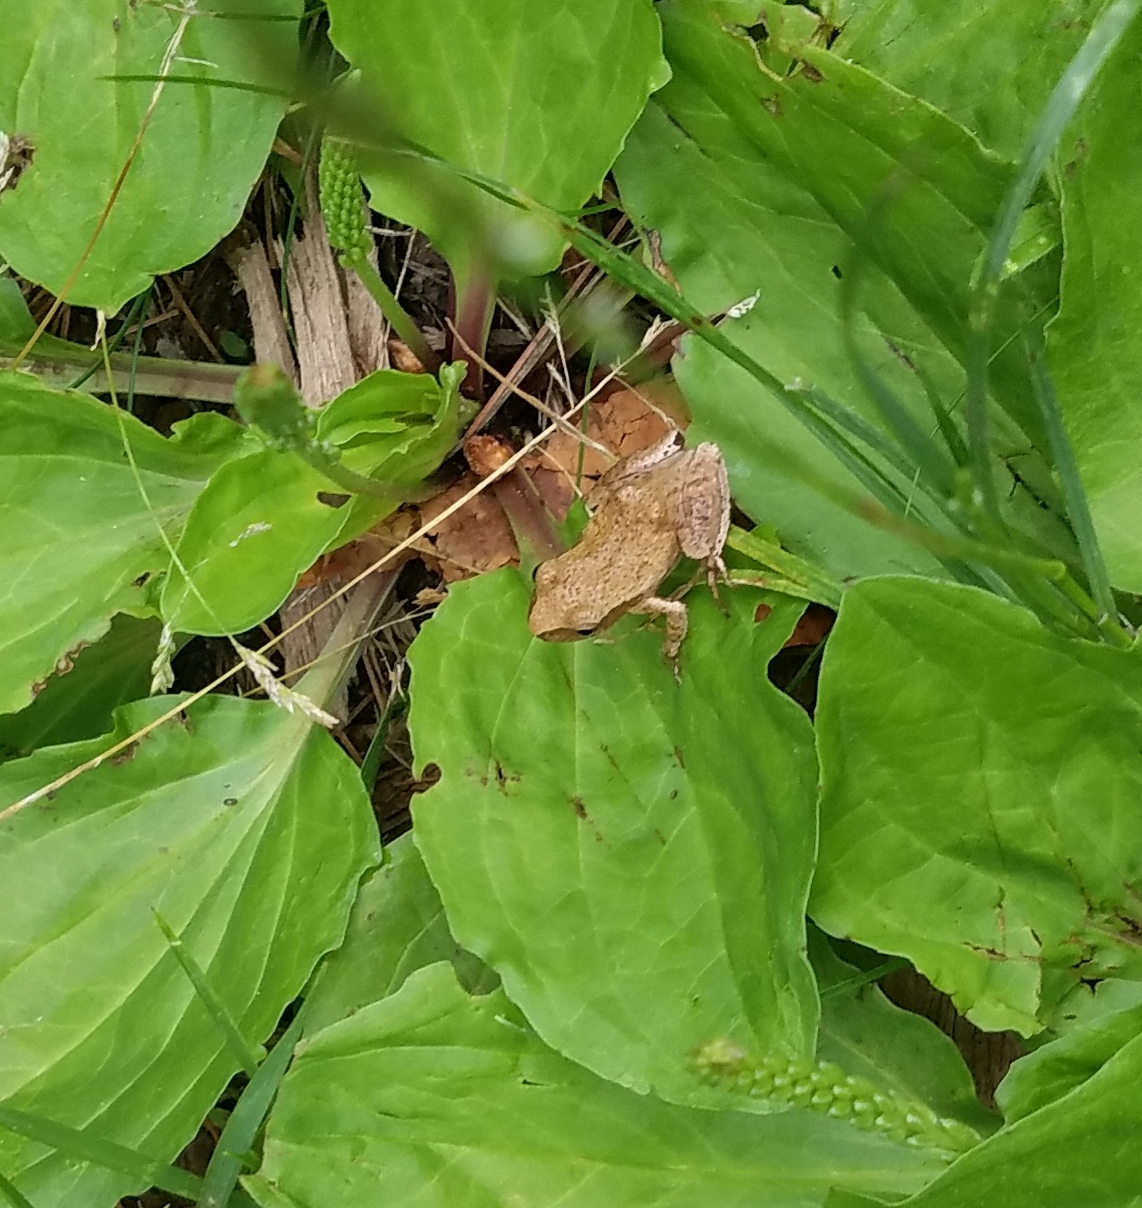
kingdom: Animalia
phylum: Chordata
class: Amphibia
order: Anura
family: Hylidae
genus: Pseudacris
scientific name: Pseudacris crucifer
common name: Spring peeper
